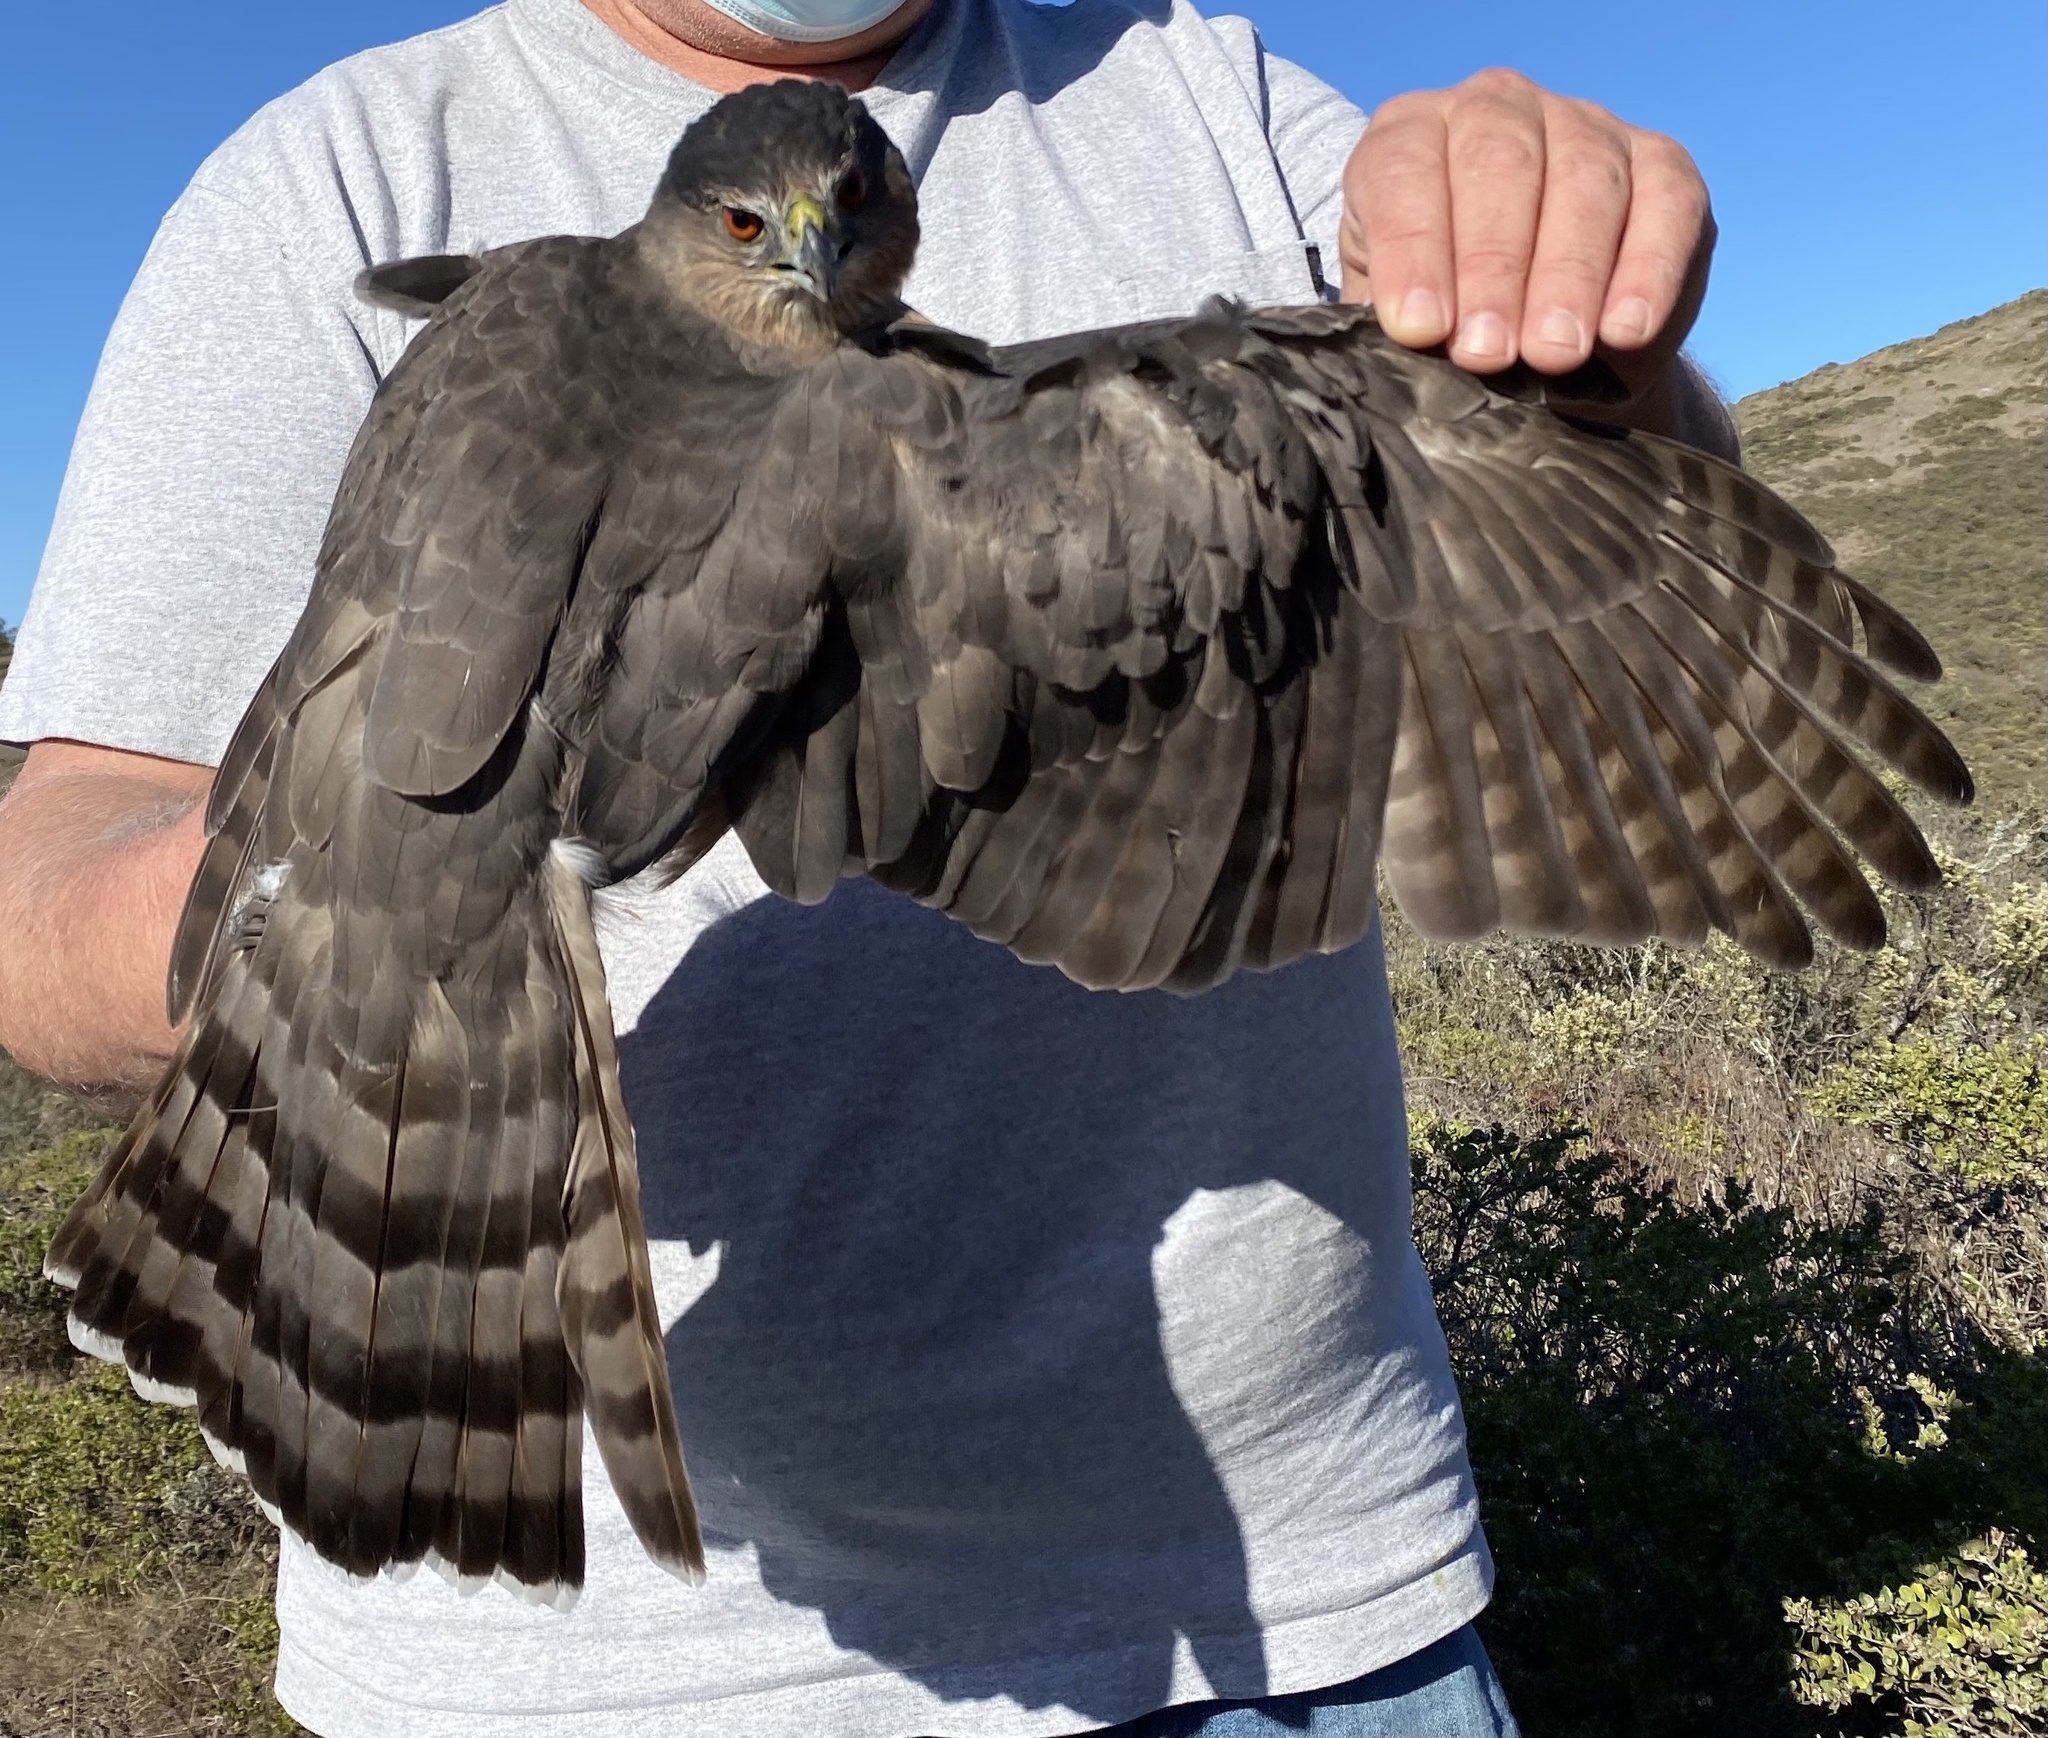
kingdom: Animalia
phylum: Chordata
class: Aves
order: Accipitriformes
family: Accipitridae
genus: Accipiter
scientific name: Accipiter cooperii
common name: Cooper's hawk
